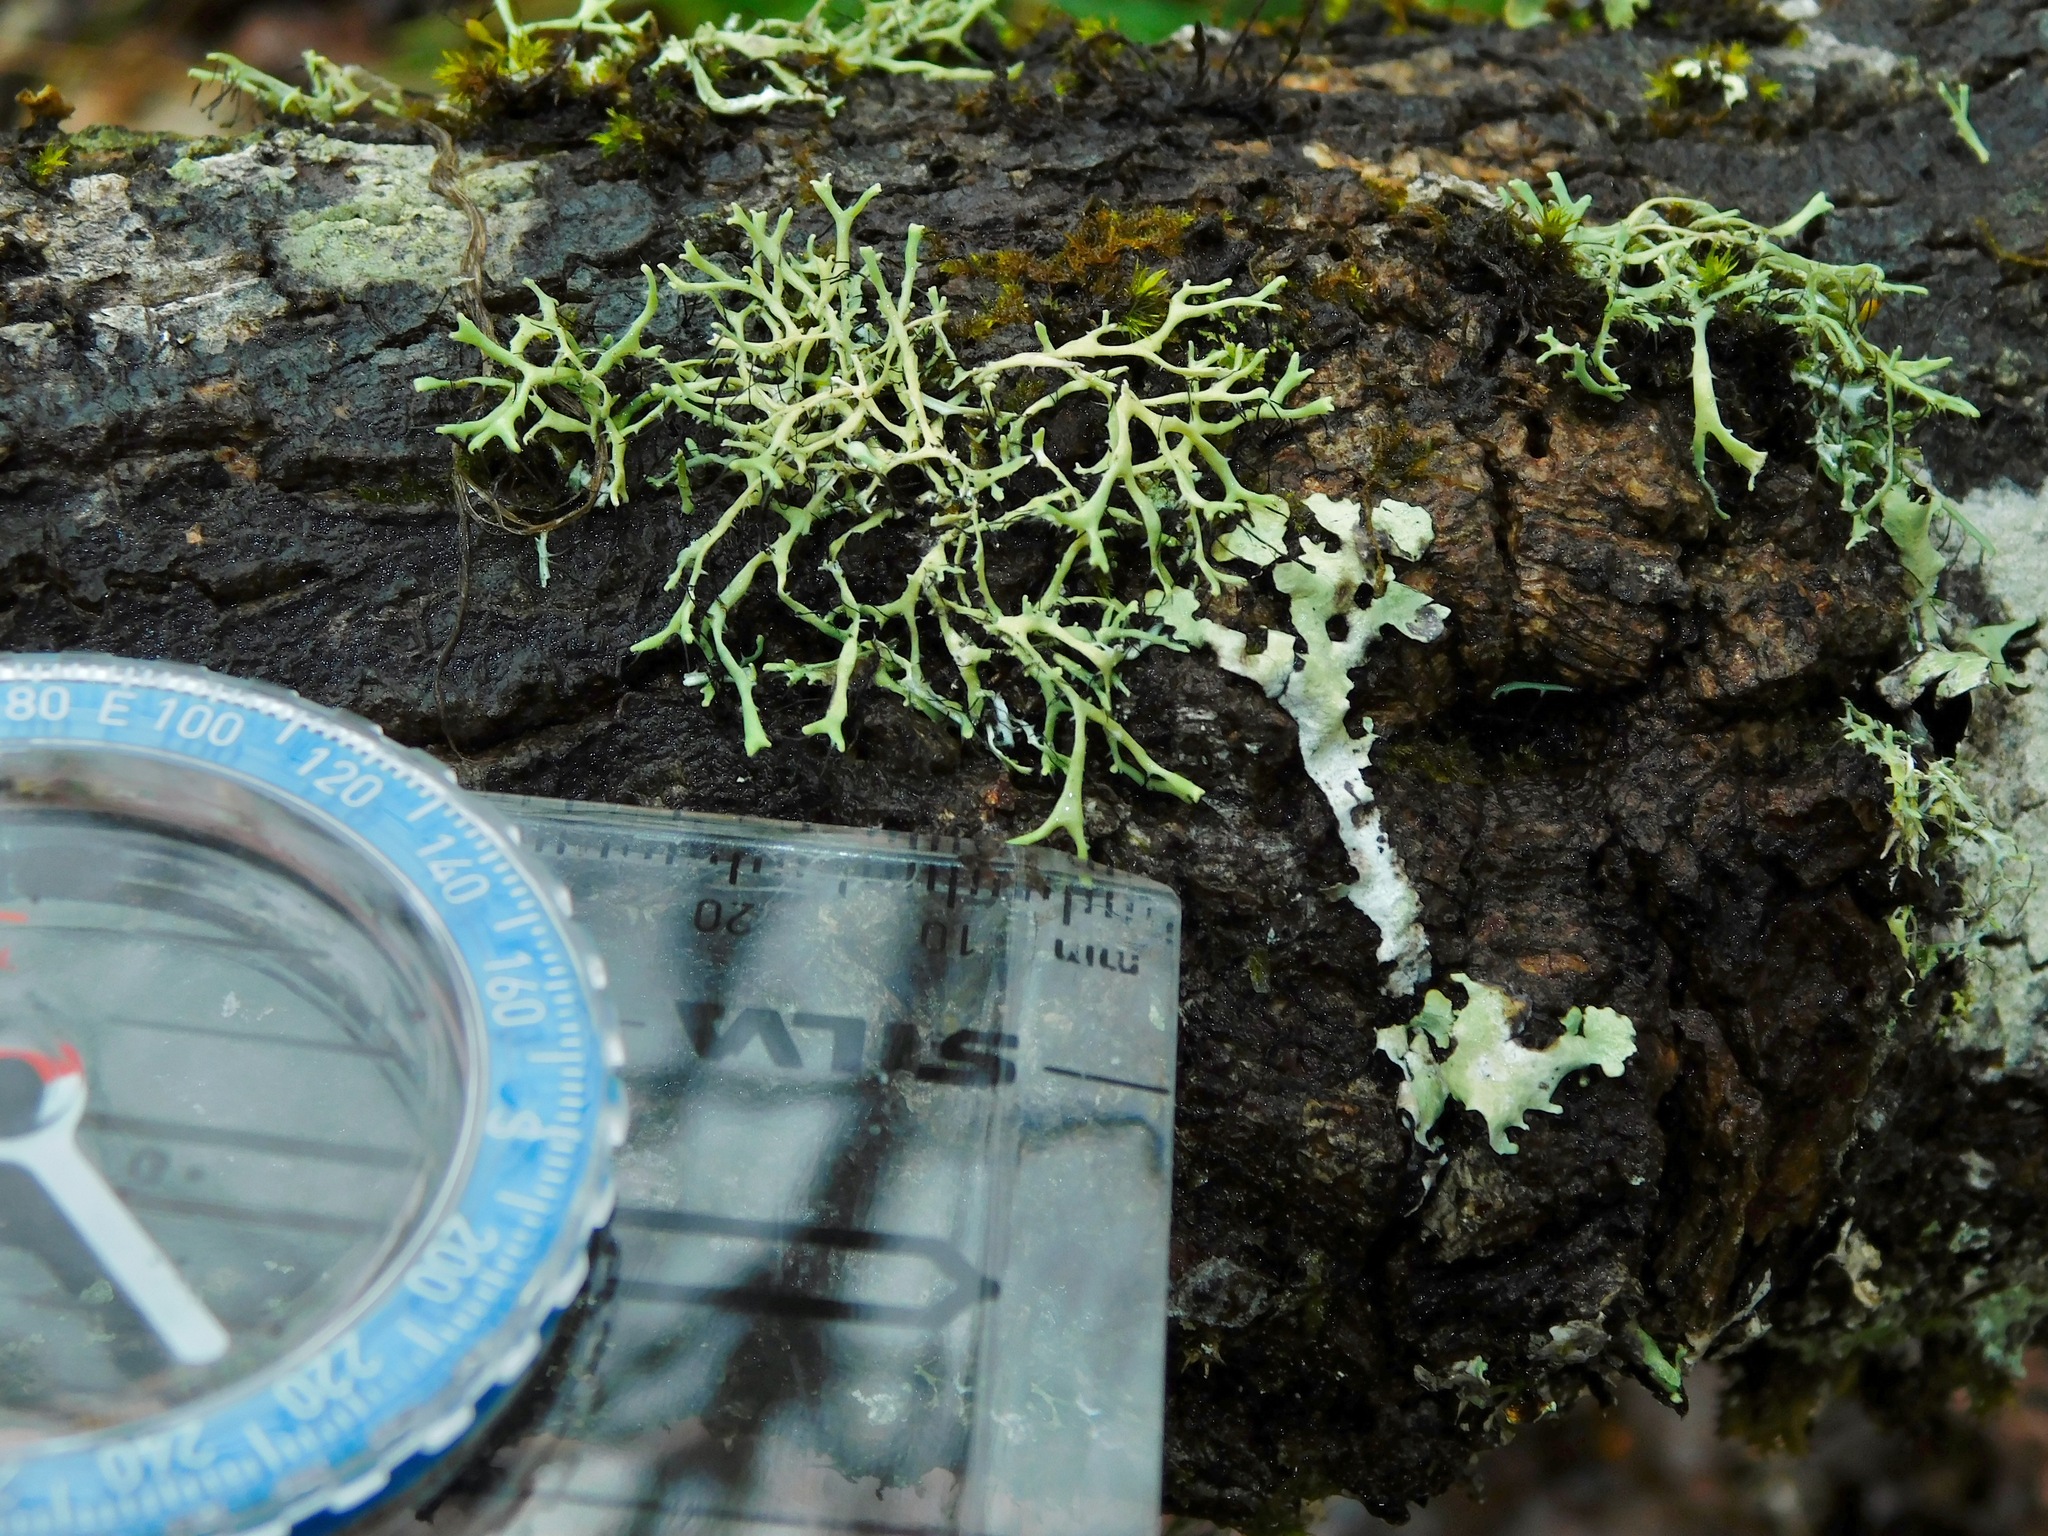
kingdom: Fungi
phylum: Ascomycota
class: Lecanoromycetes
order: Caliciales
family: Physciaceae
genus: Leucodermia
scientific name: Leucodermia leucomelos
